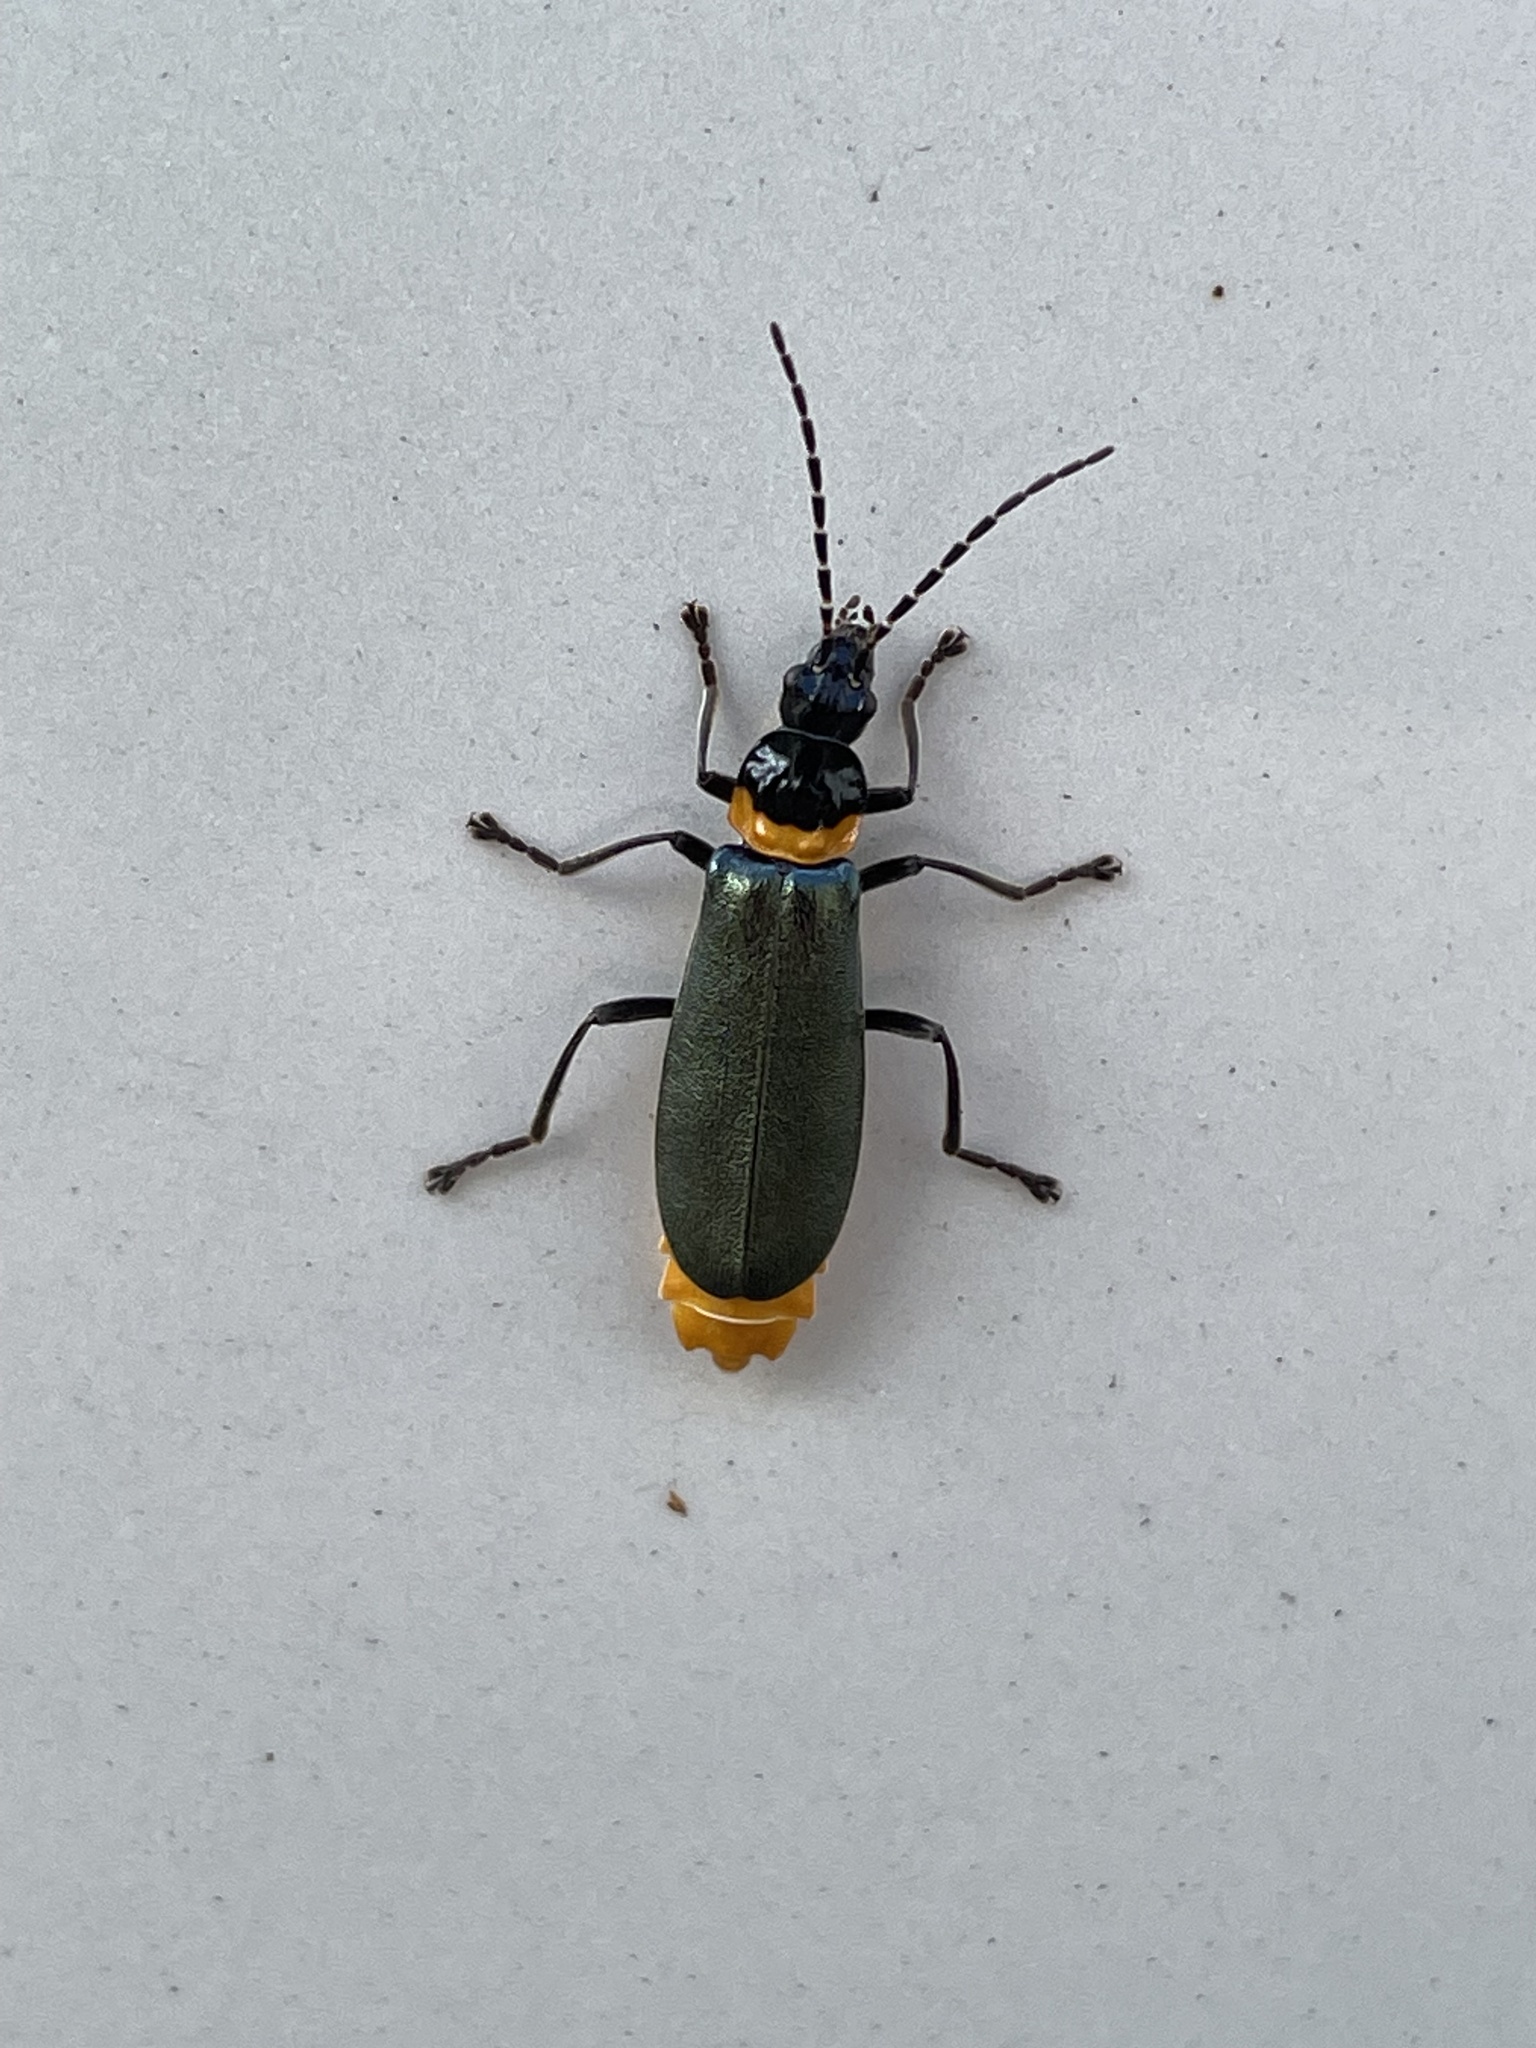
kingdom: Animalia
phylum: Arthropoda
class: Insecta
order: Coleoptera
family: Cantharidae
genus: Chauliognathus
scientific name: Chauliognathus
